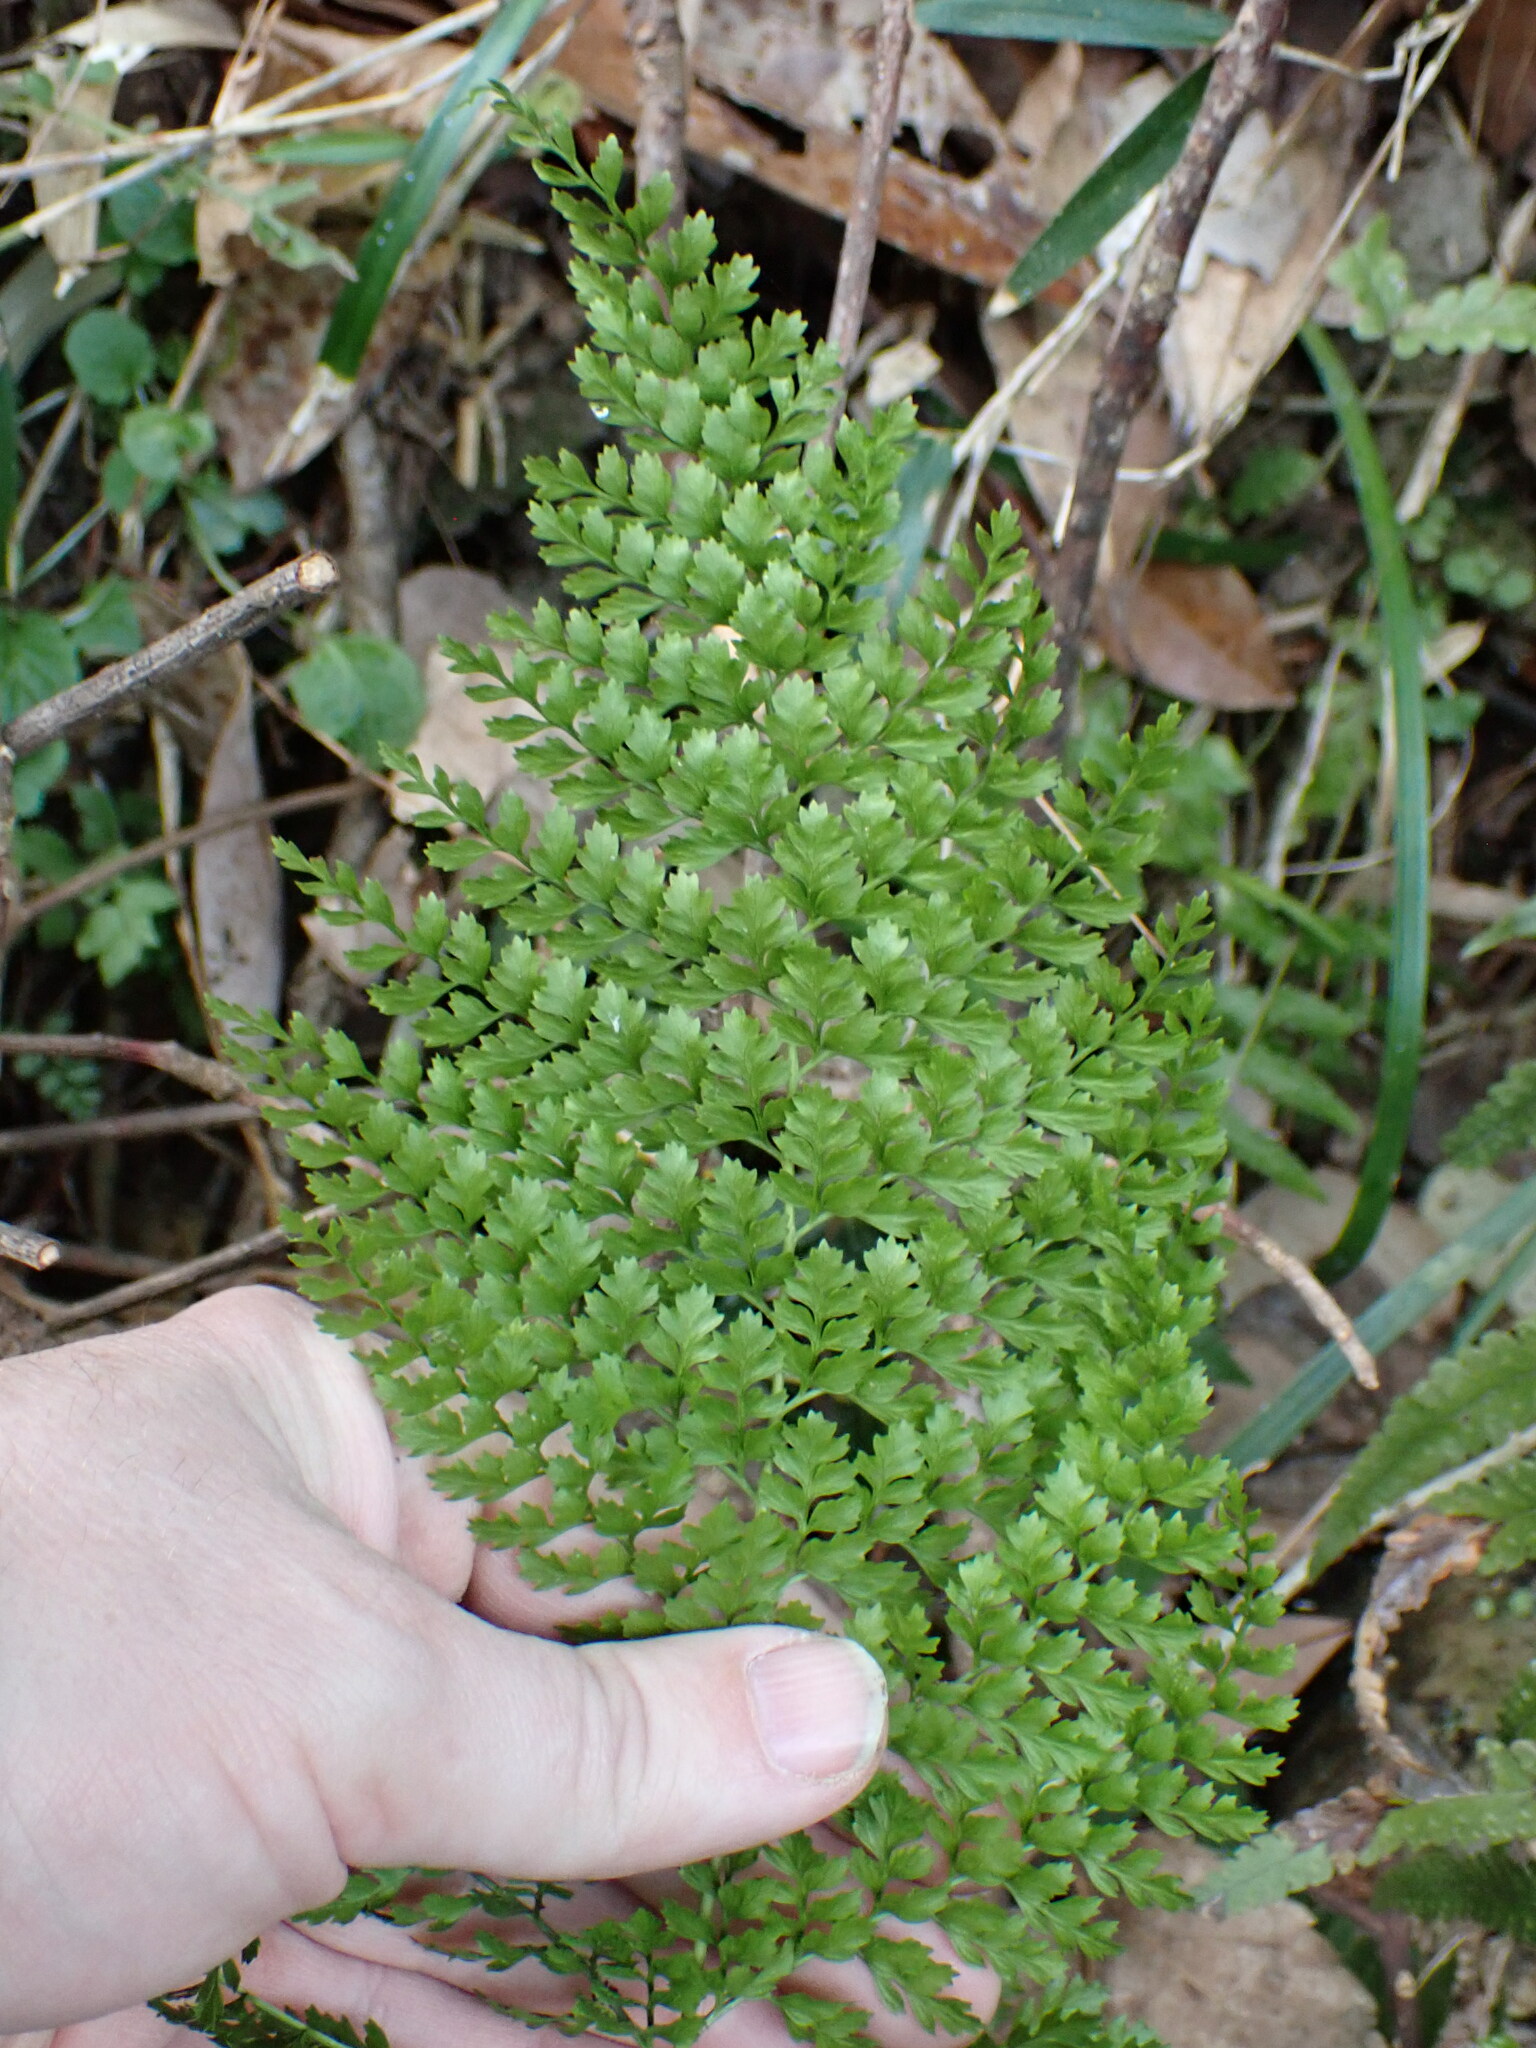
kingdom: Plantae
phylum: Tracheophyta
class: Polypodiopsida
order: Polypodiales
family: Dryopteridaceae
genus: Arachniodes
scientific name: Arachniodes standishii
